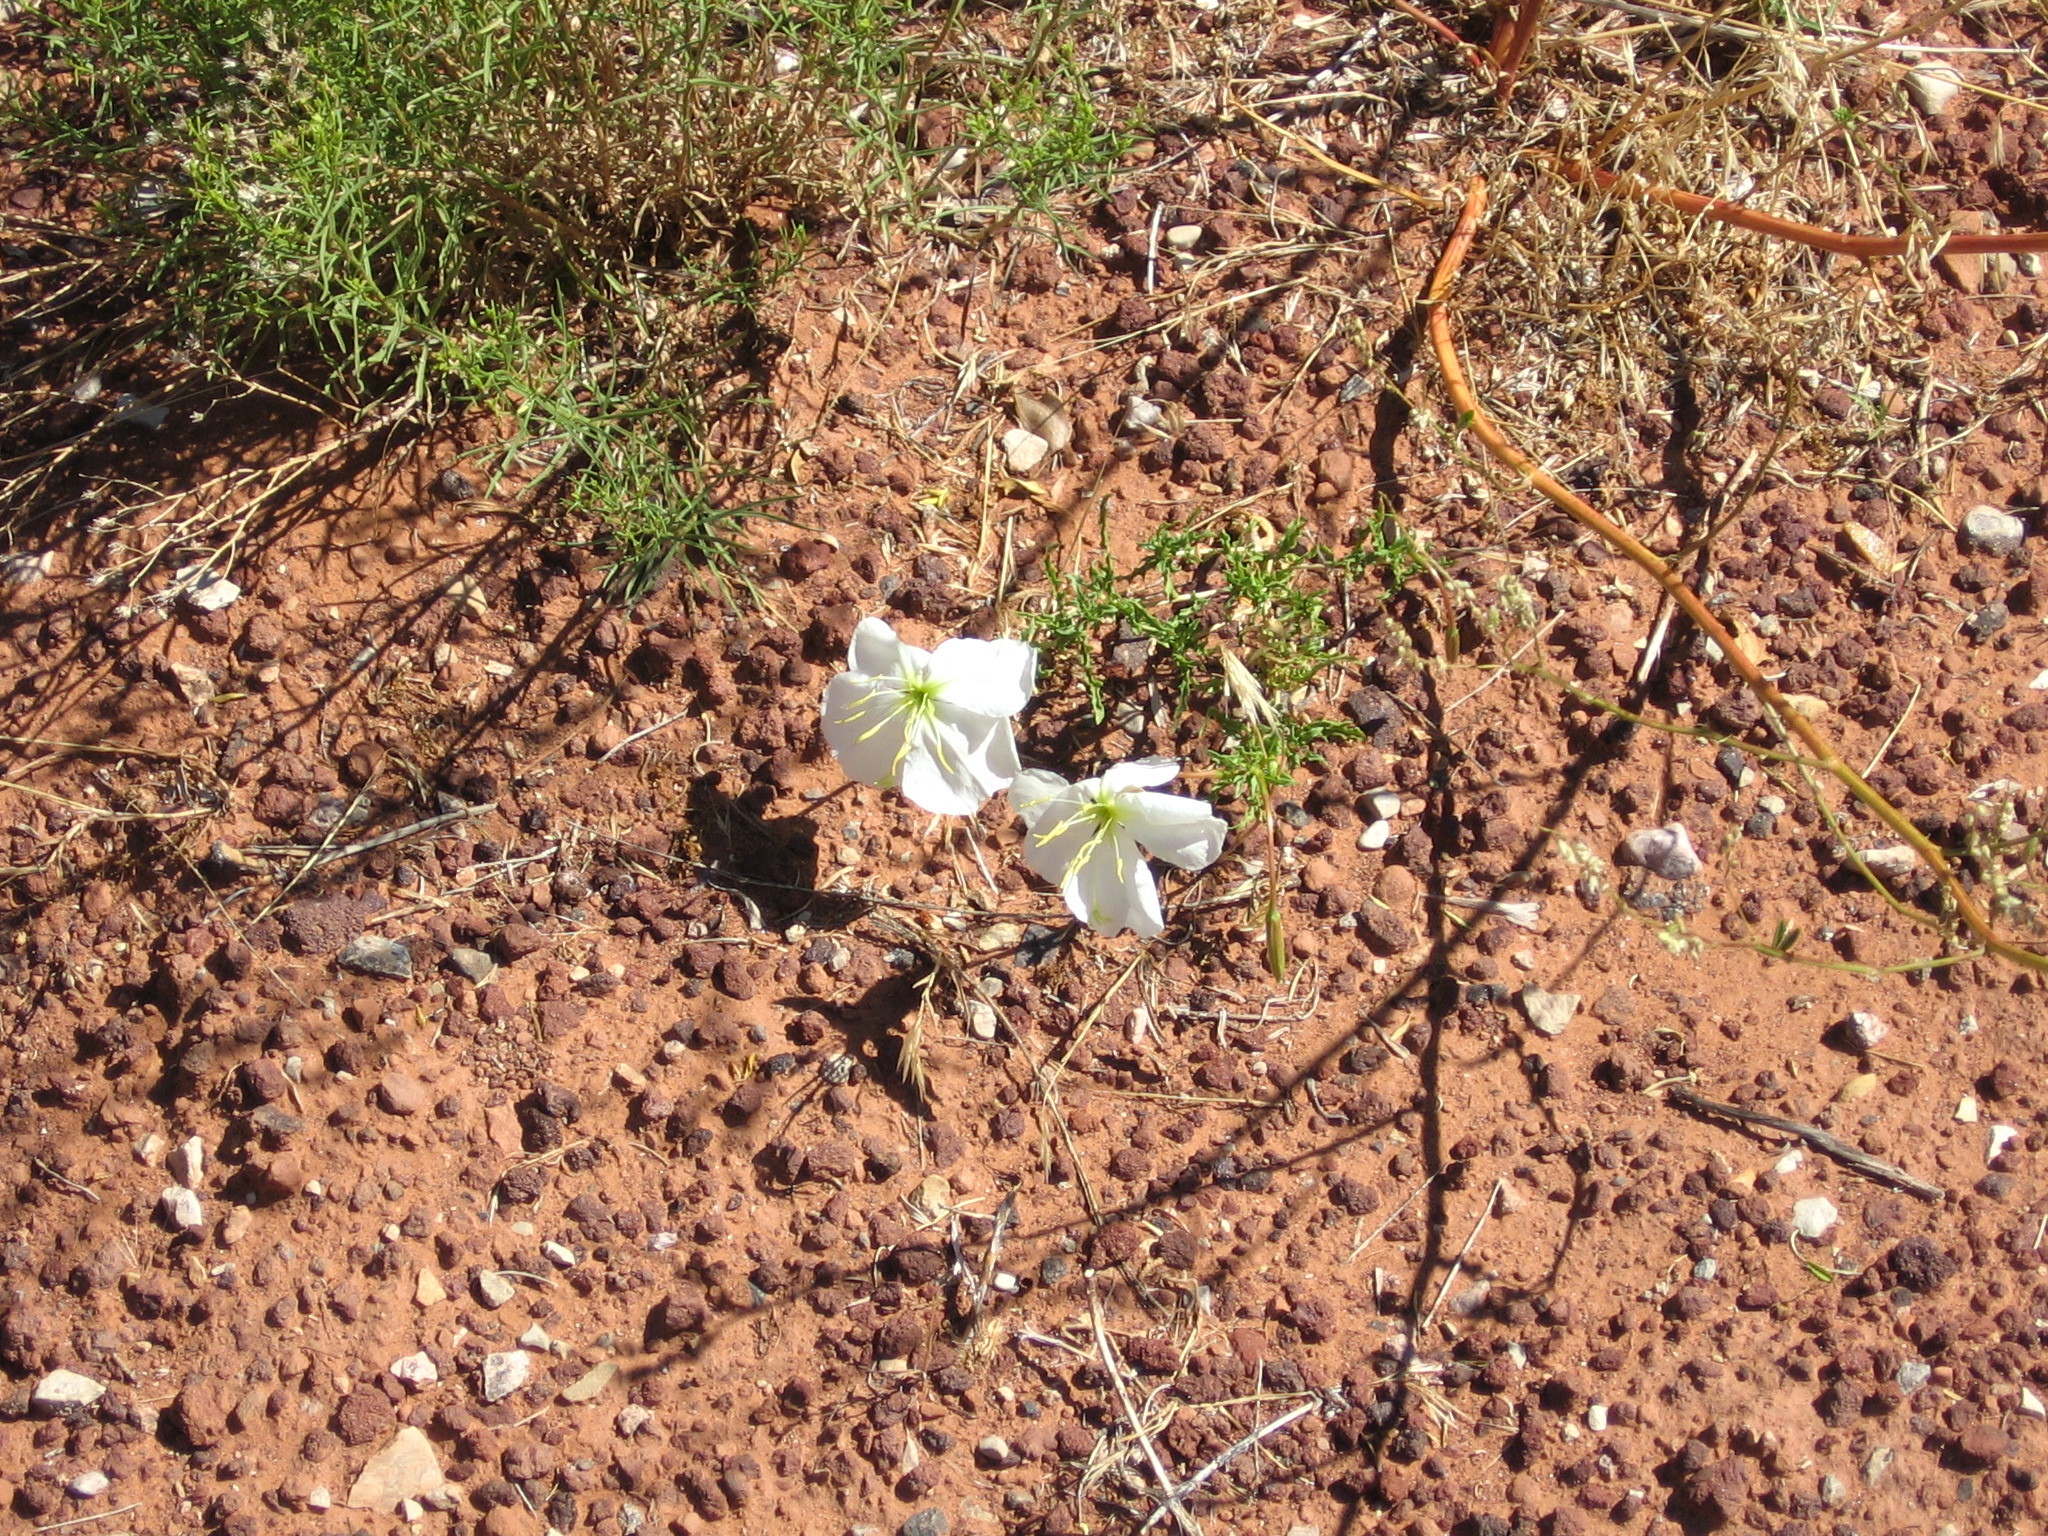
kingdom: Plantae
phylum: Tracheophyta
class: Magnoliopsida
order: Myrtales
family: Onagraceae
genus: Oenothera
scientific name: Oenothera pallida
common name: Pale evening-primrose
